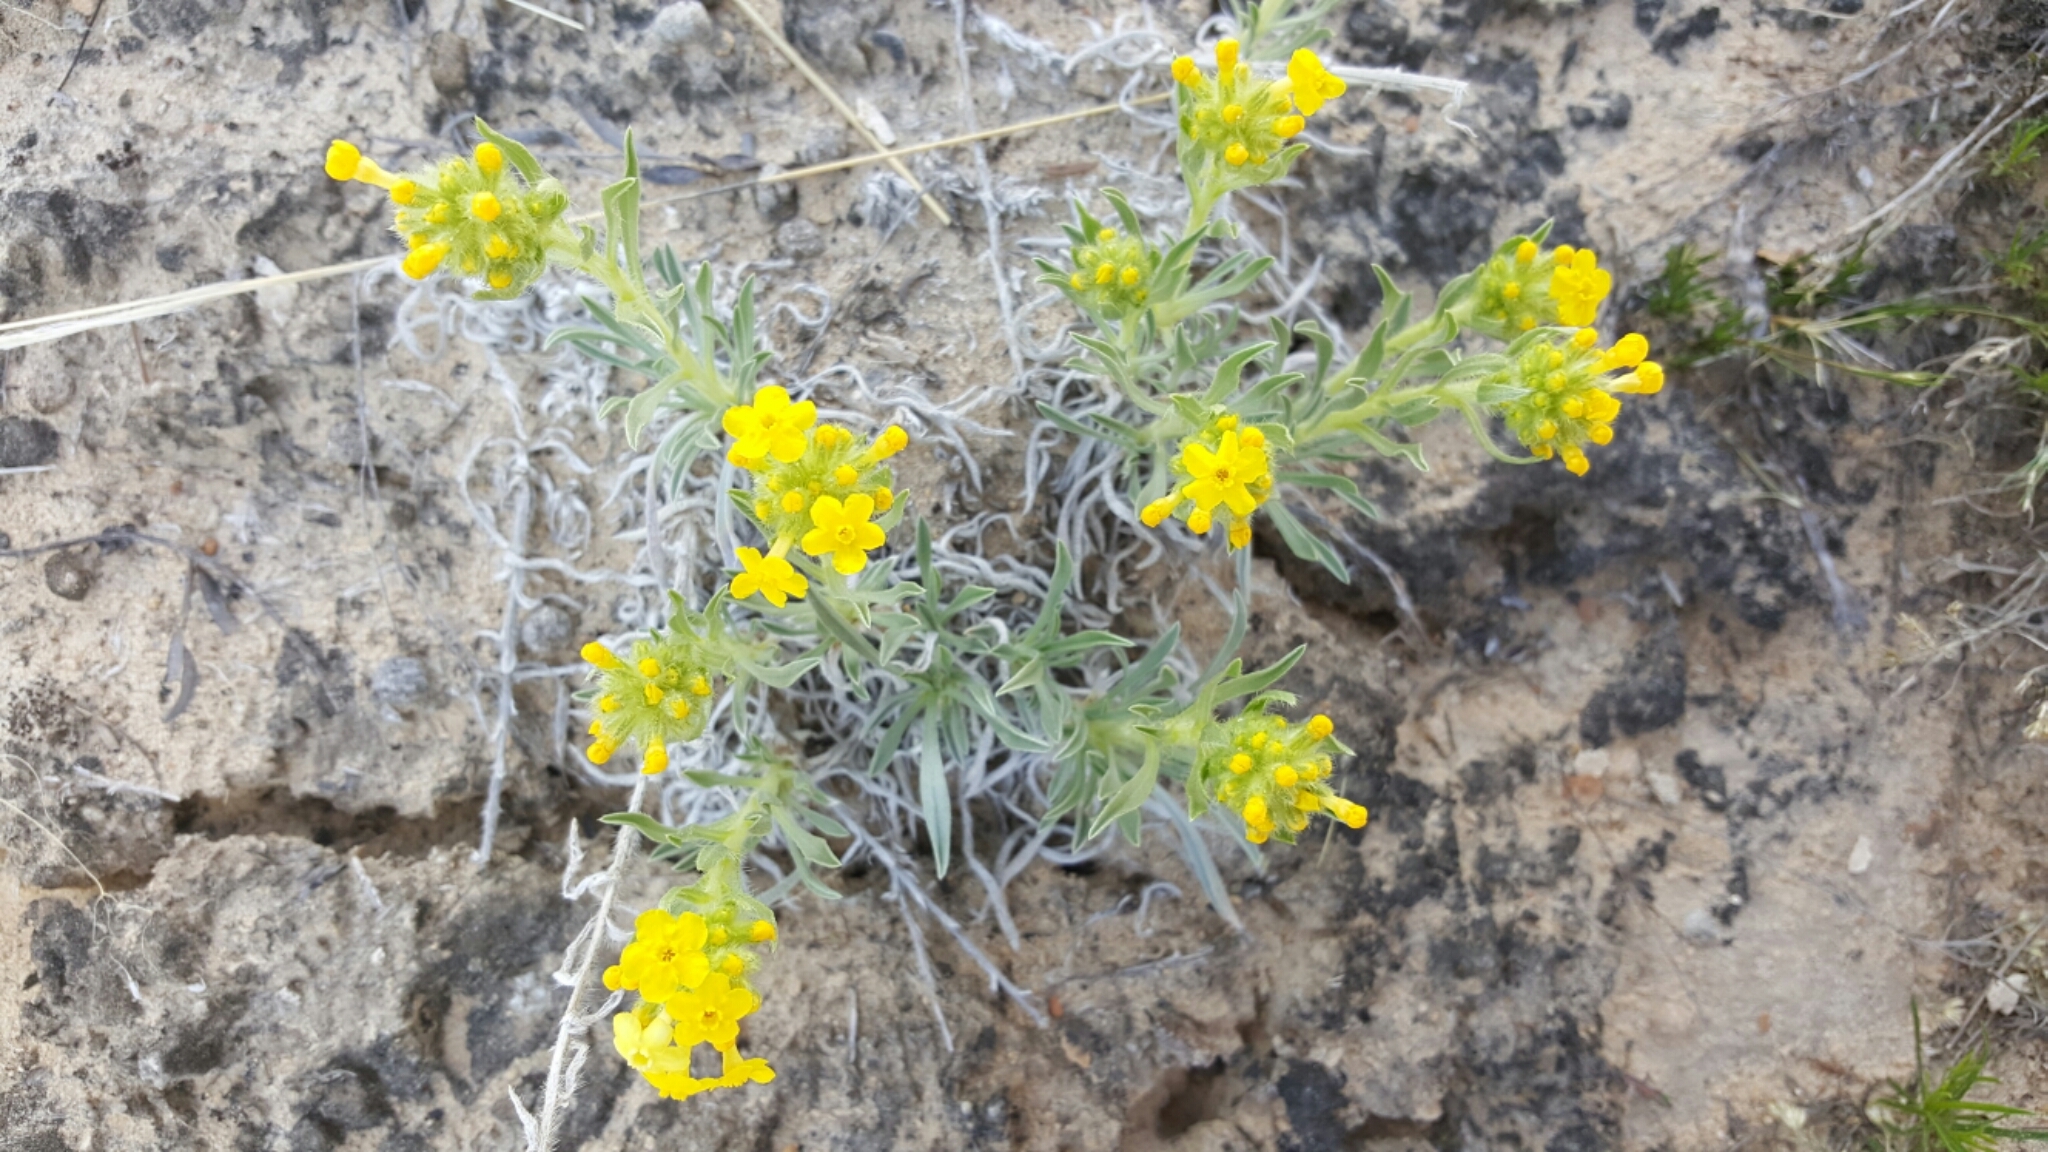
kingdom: Plantae
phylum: Tracheophyta
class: Magnoliopsida
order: Boraginales
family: Boraginaceae
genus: Oreocarya
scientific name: Oreocarya flava
